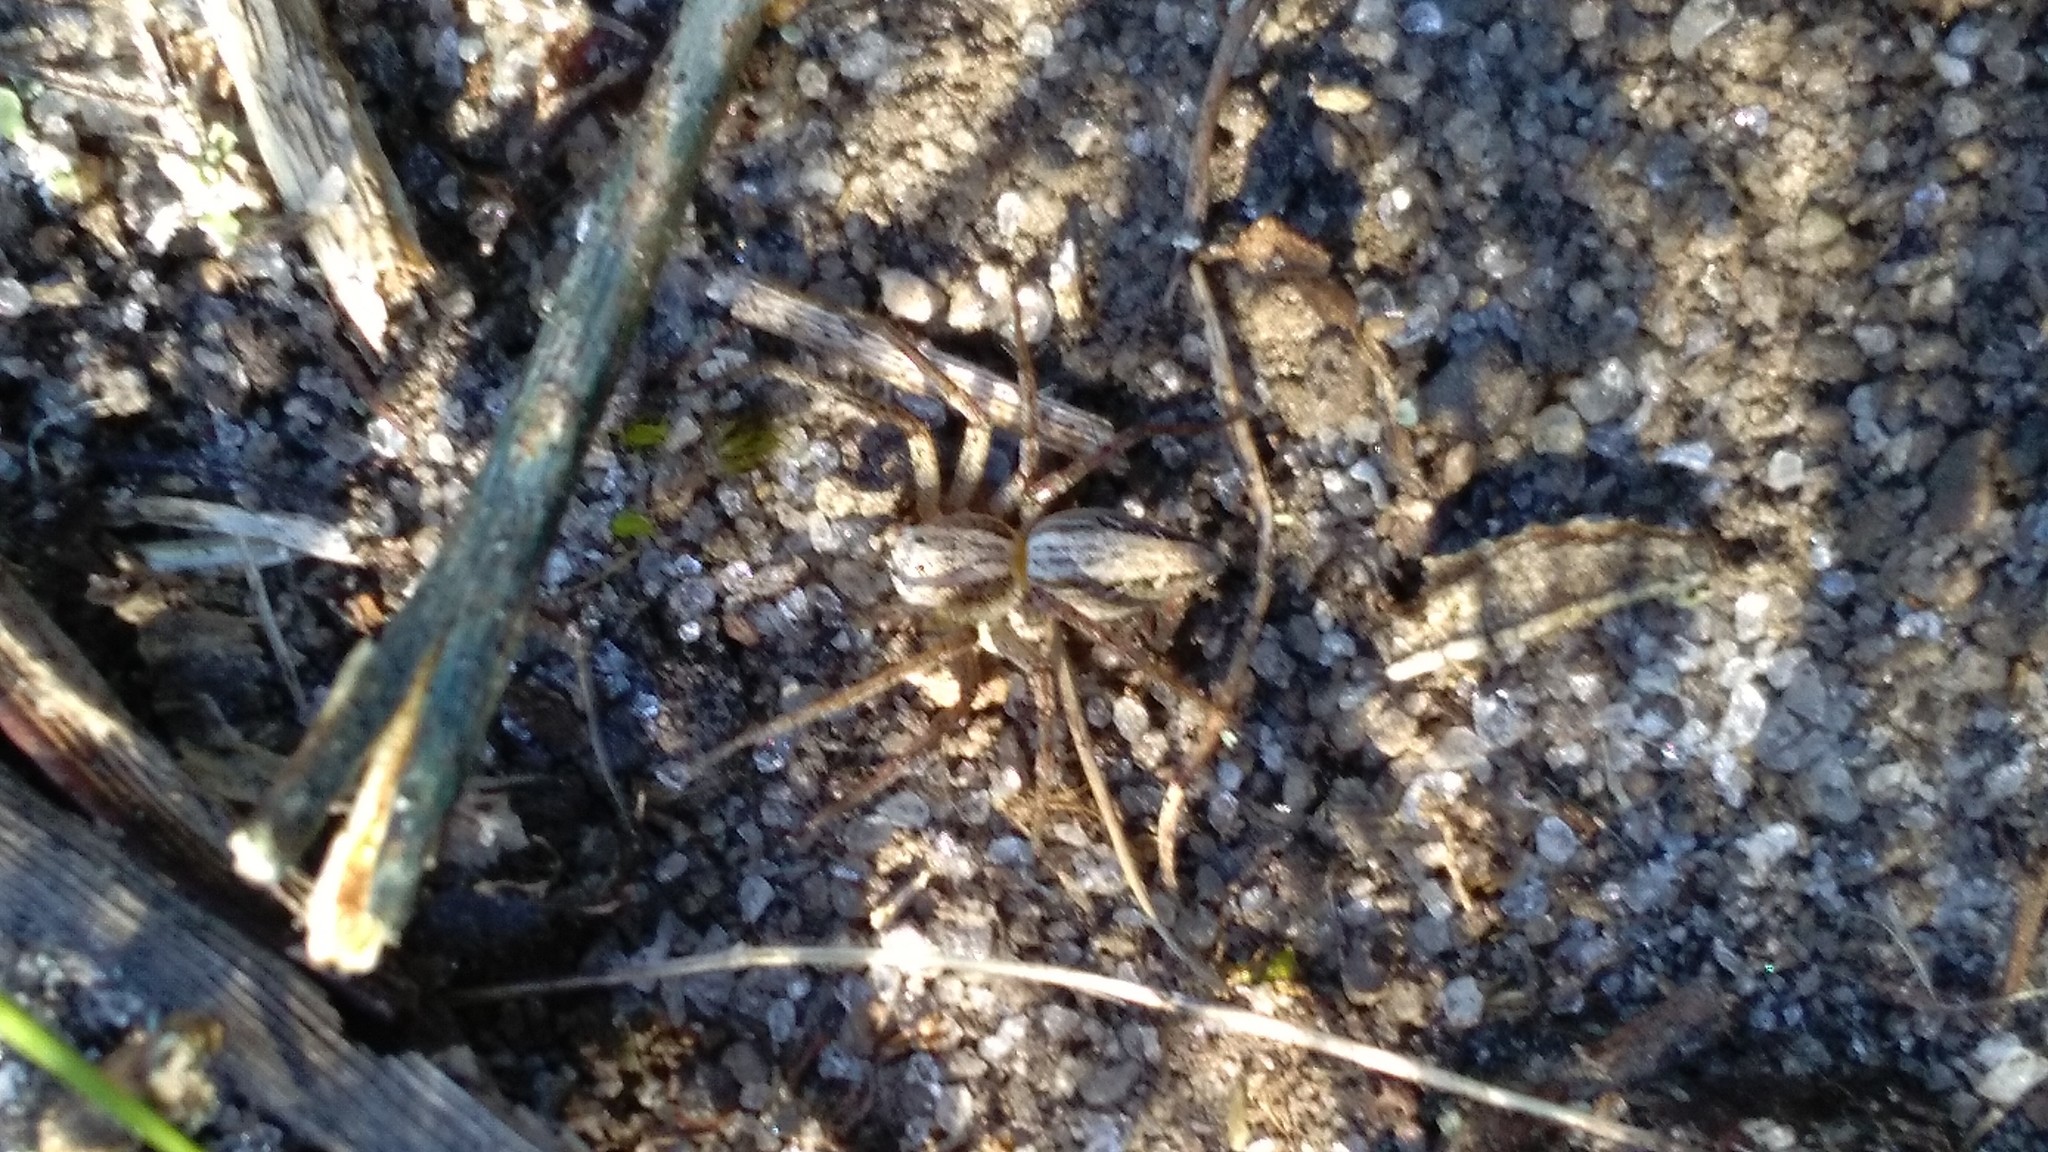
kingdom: Animalia
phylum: Arthropoda
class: Arachnida
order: Araneae
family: Oxyopidae
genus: Oxyopes
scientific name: Oxyopes gracilipes
